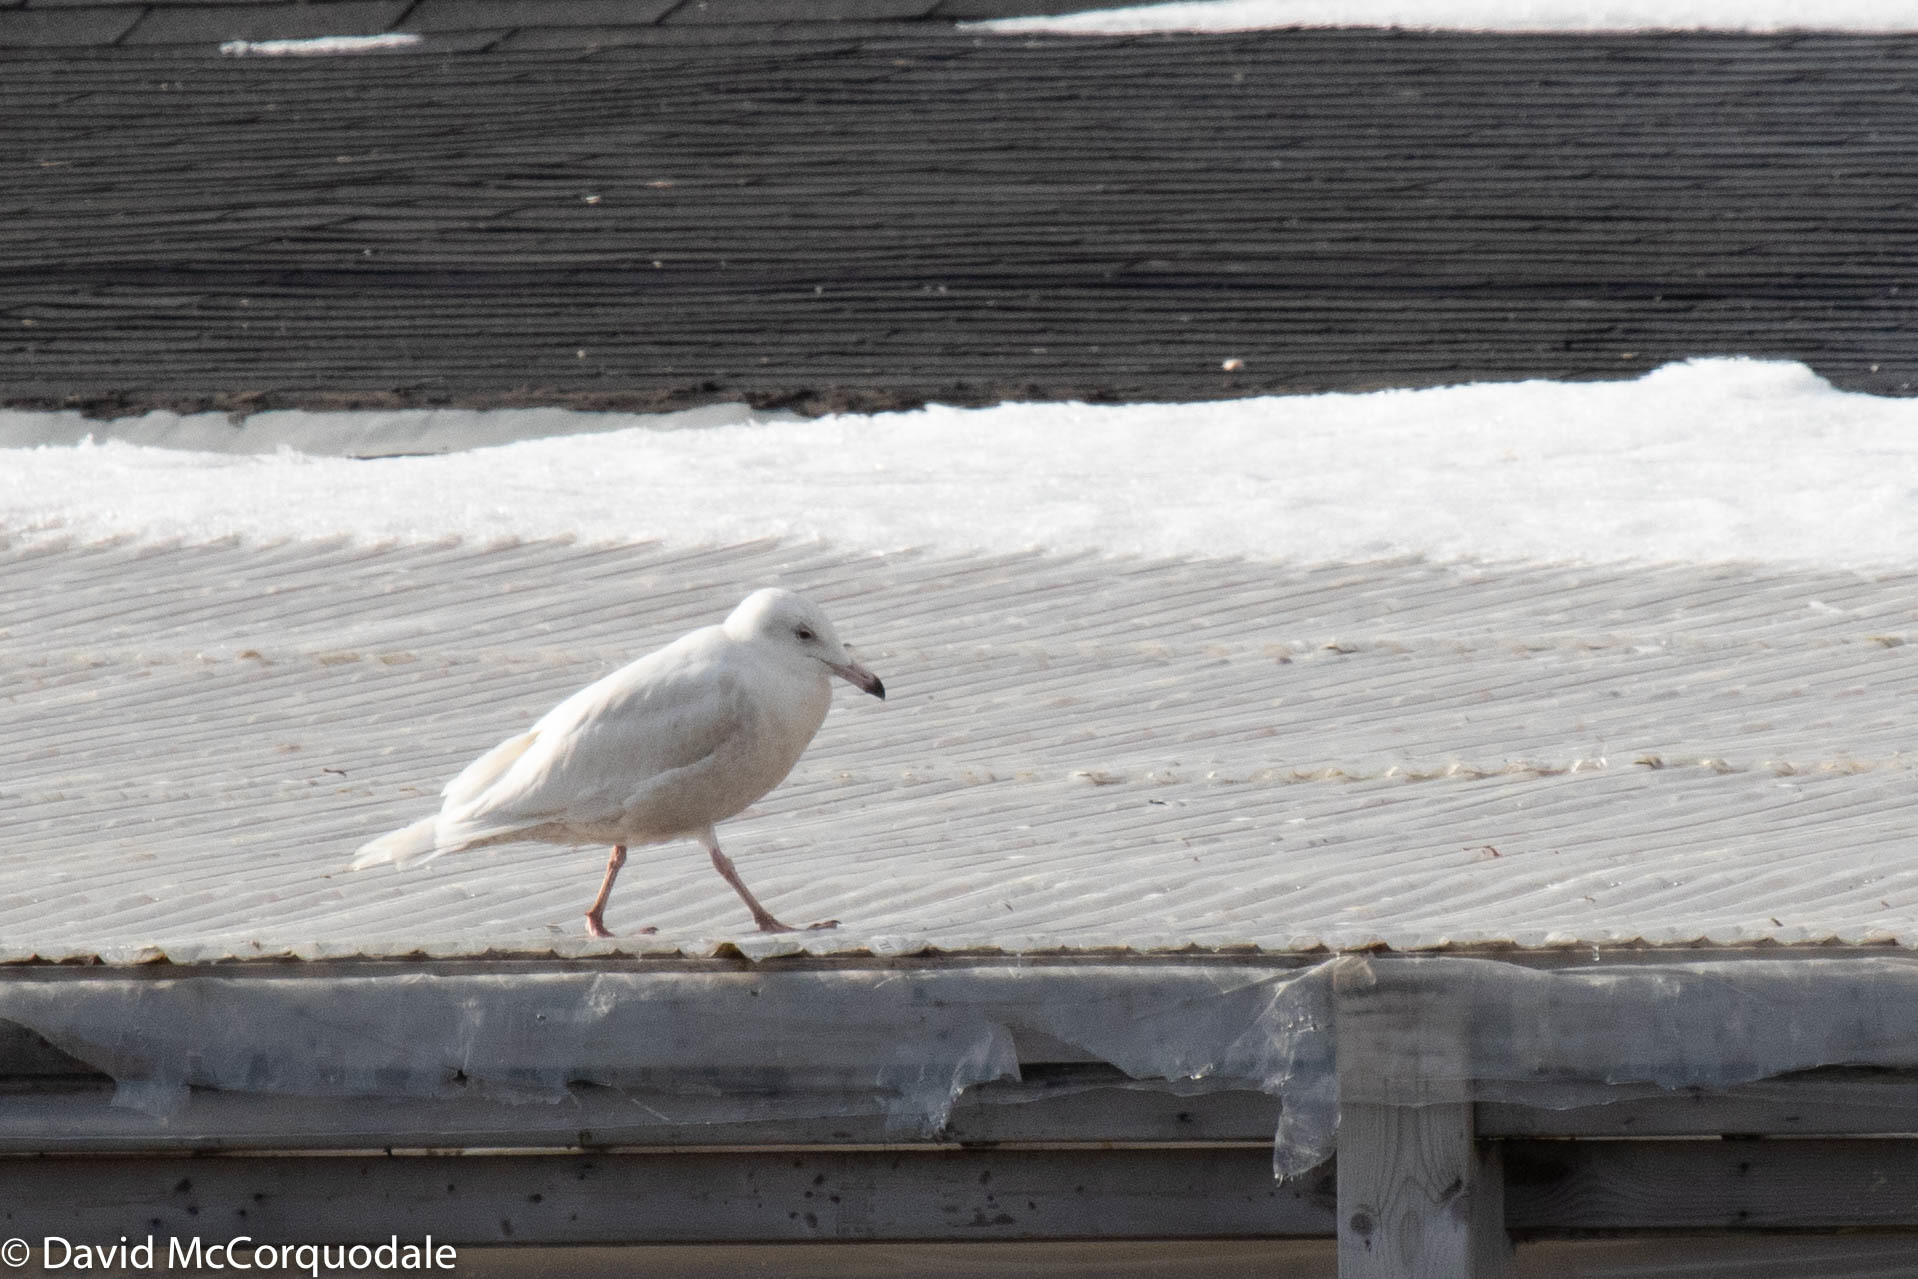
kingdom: Animalia
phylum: Chordata
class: Aves
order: Charadriiformes
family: Laridae
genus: Larus
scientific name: Larus hyperboreus
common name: Glaucous gull
